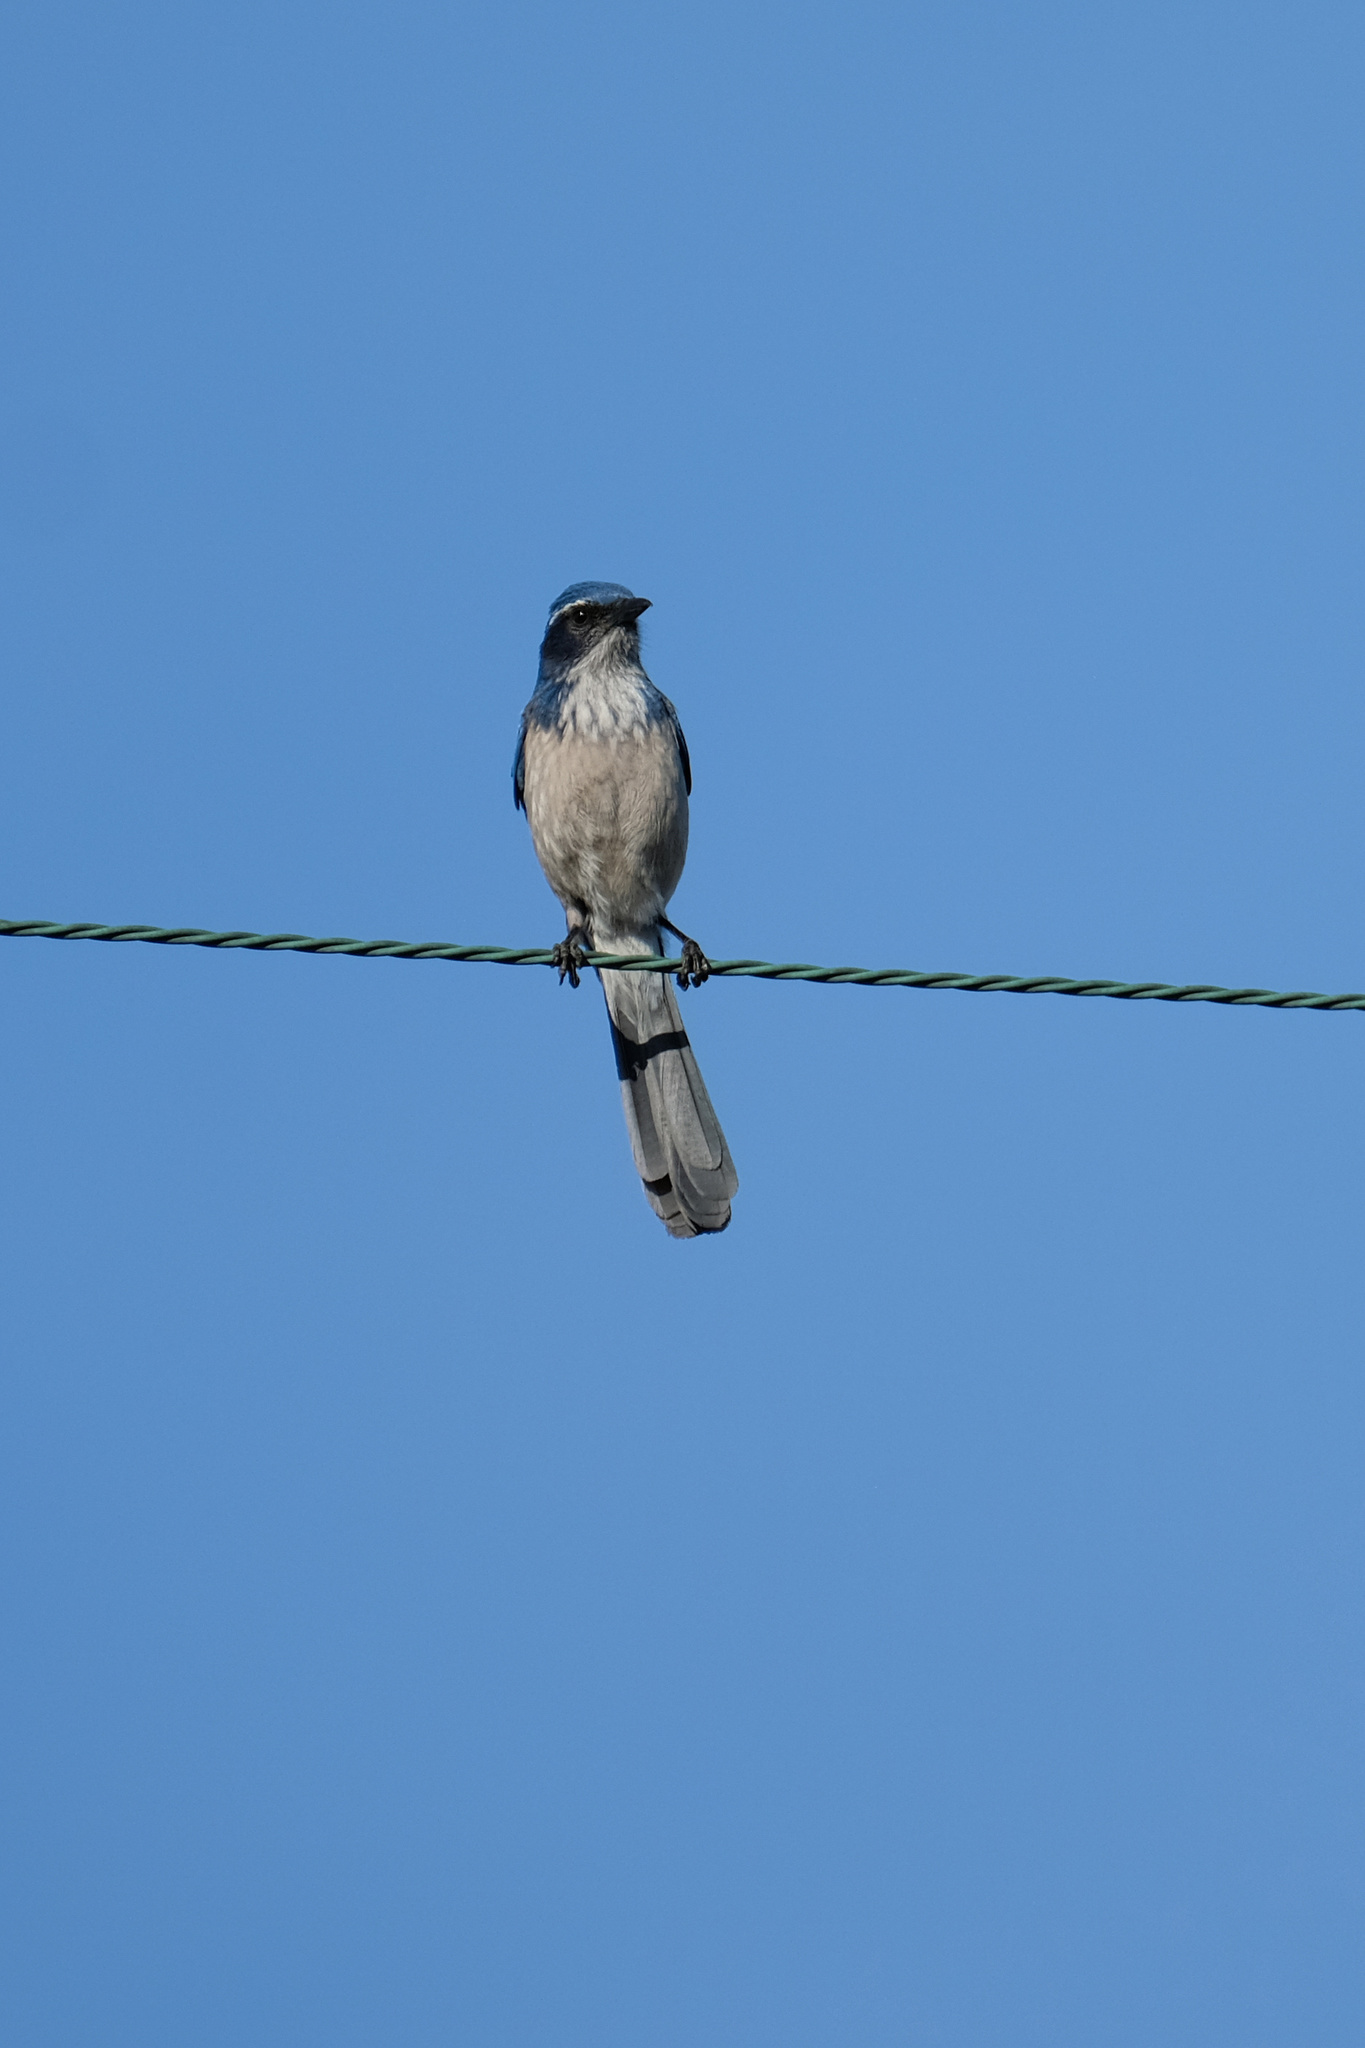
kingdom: Animalia
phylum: Chordata
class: Aves
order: Passeriformes
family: Corvidae
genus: Aphelocoma
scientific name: Aphelocoma californica
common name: California scrub-jay
